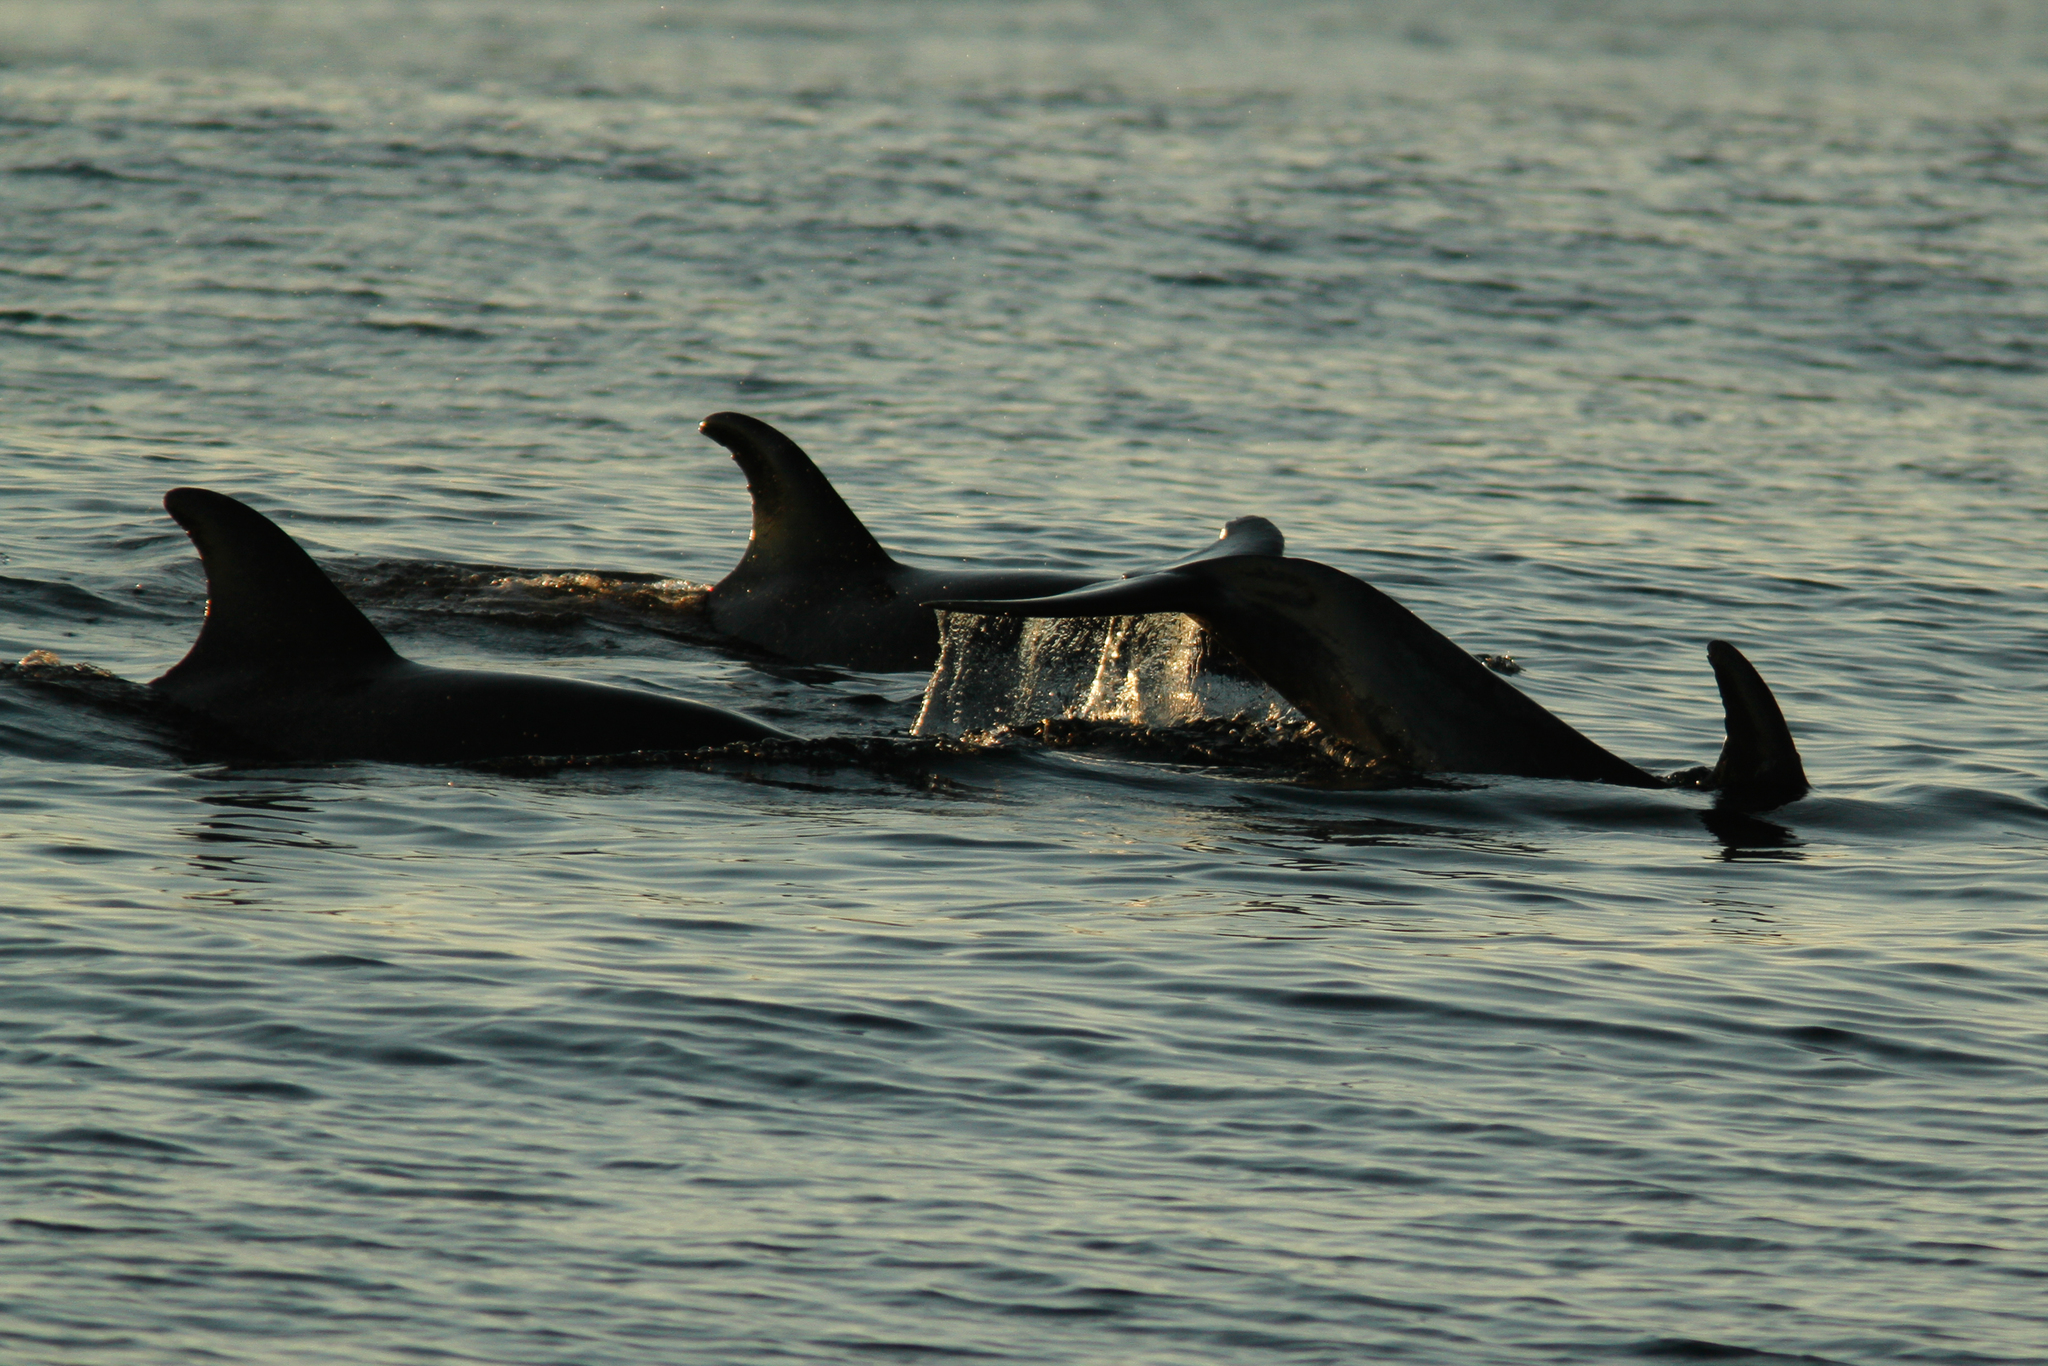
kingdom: Animalia
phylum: Chordata
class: Mammalia
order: Cetacea
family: Delphinidae
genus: Tursiops
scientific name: Tursiops truncatus
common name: Bottlenose dolphin
